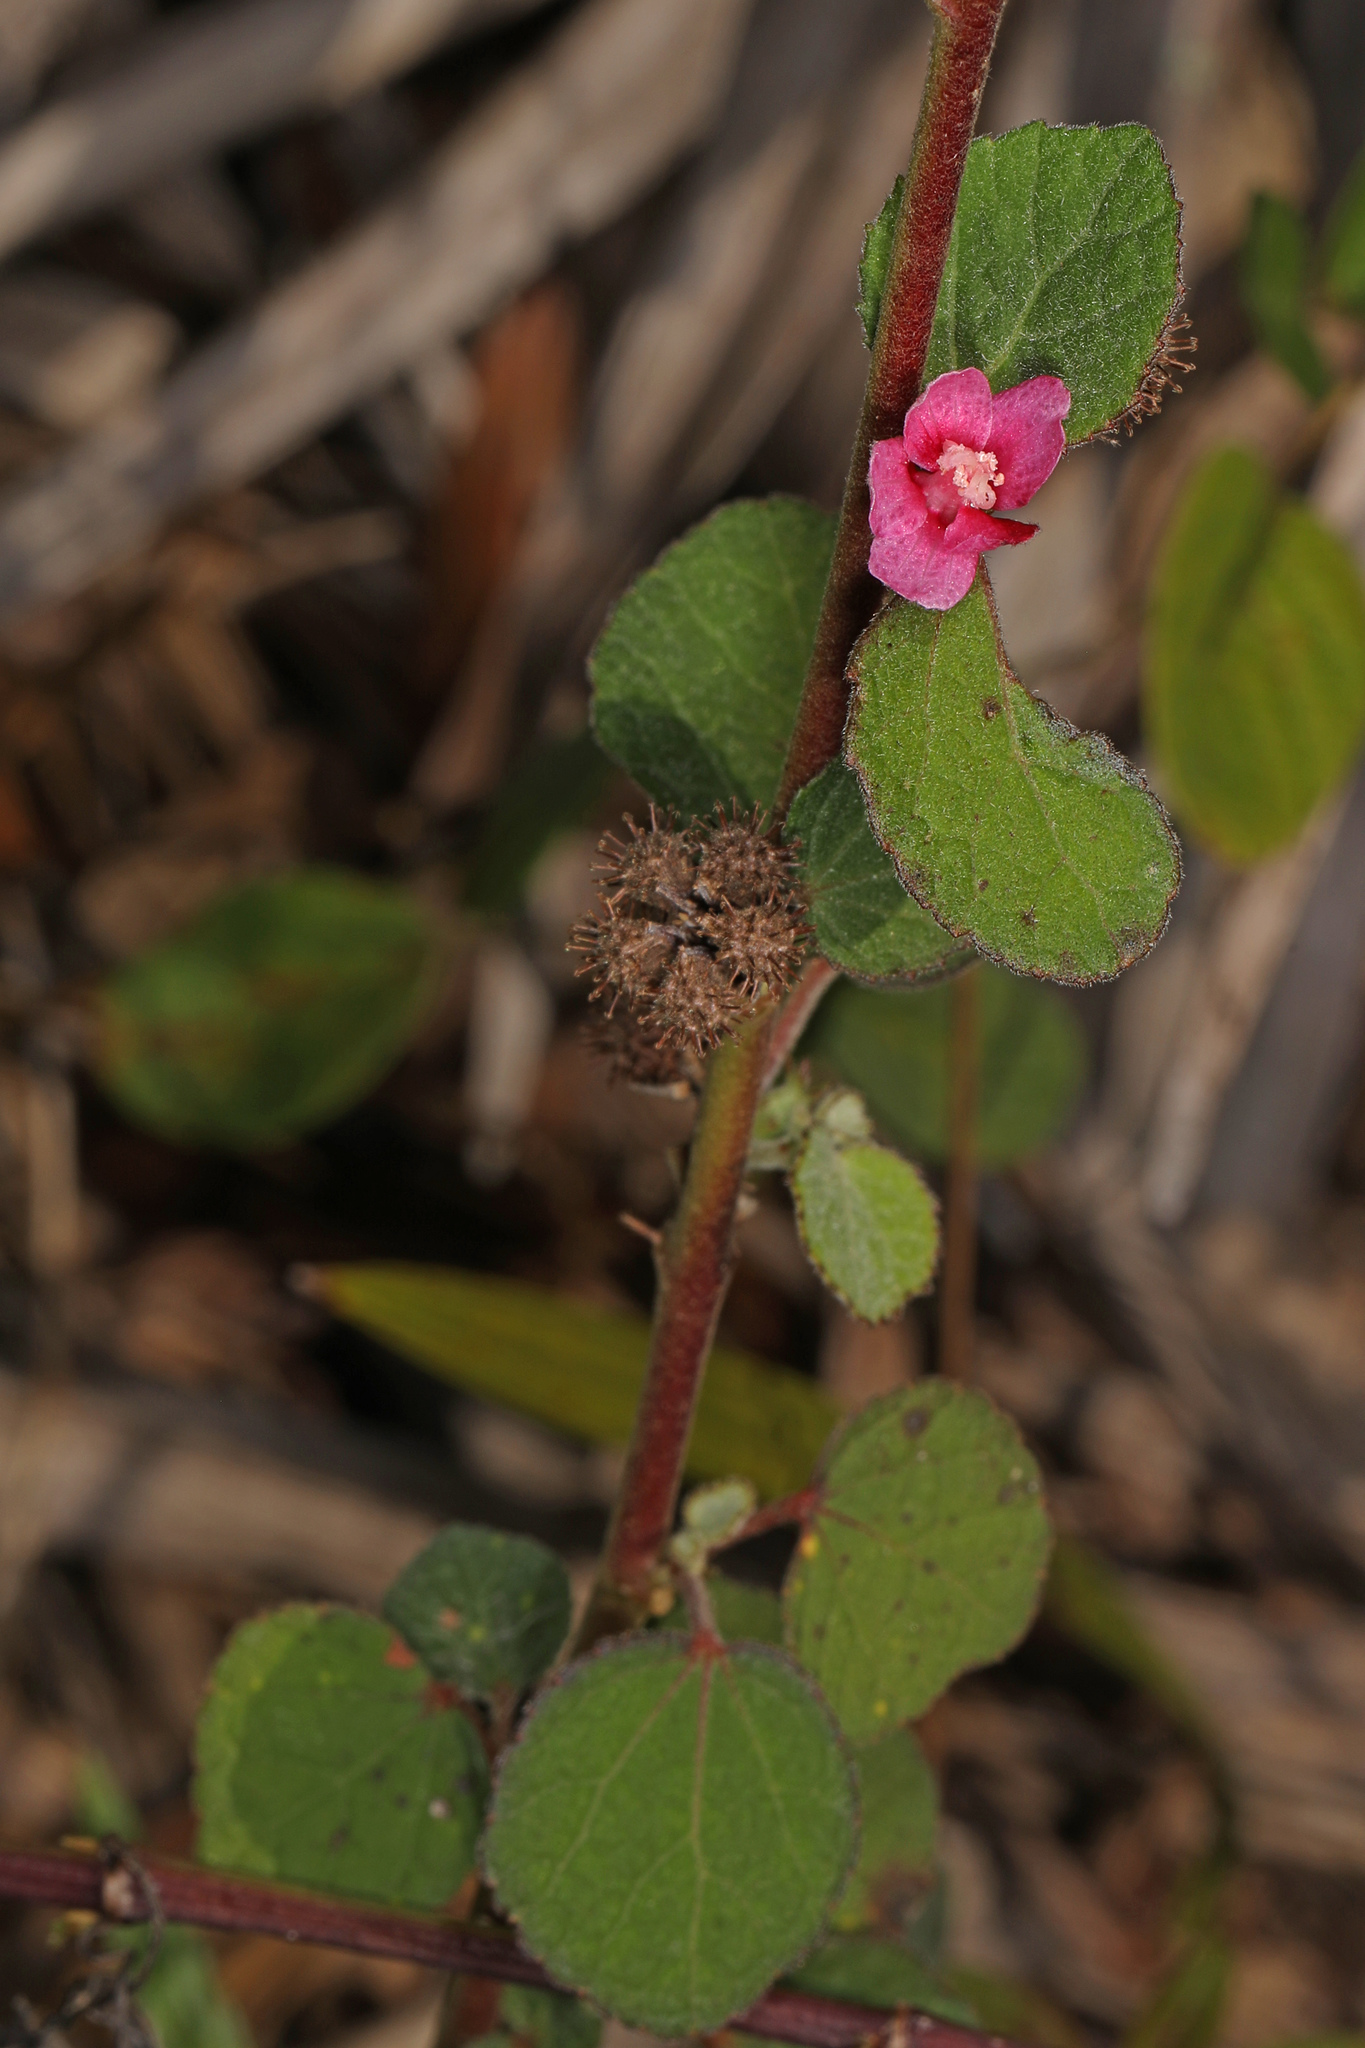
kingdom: Plantae
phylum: Tracheophyta
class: Magnoliopsida
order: Malvales
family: Malvaceae
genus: Urena
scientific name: Urena lobata
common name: Caesarweed
